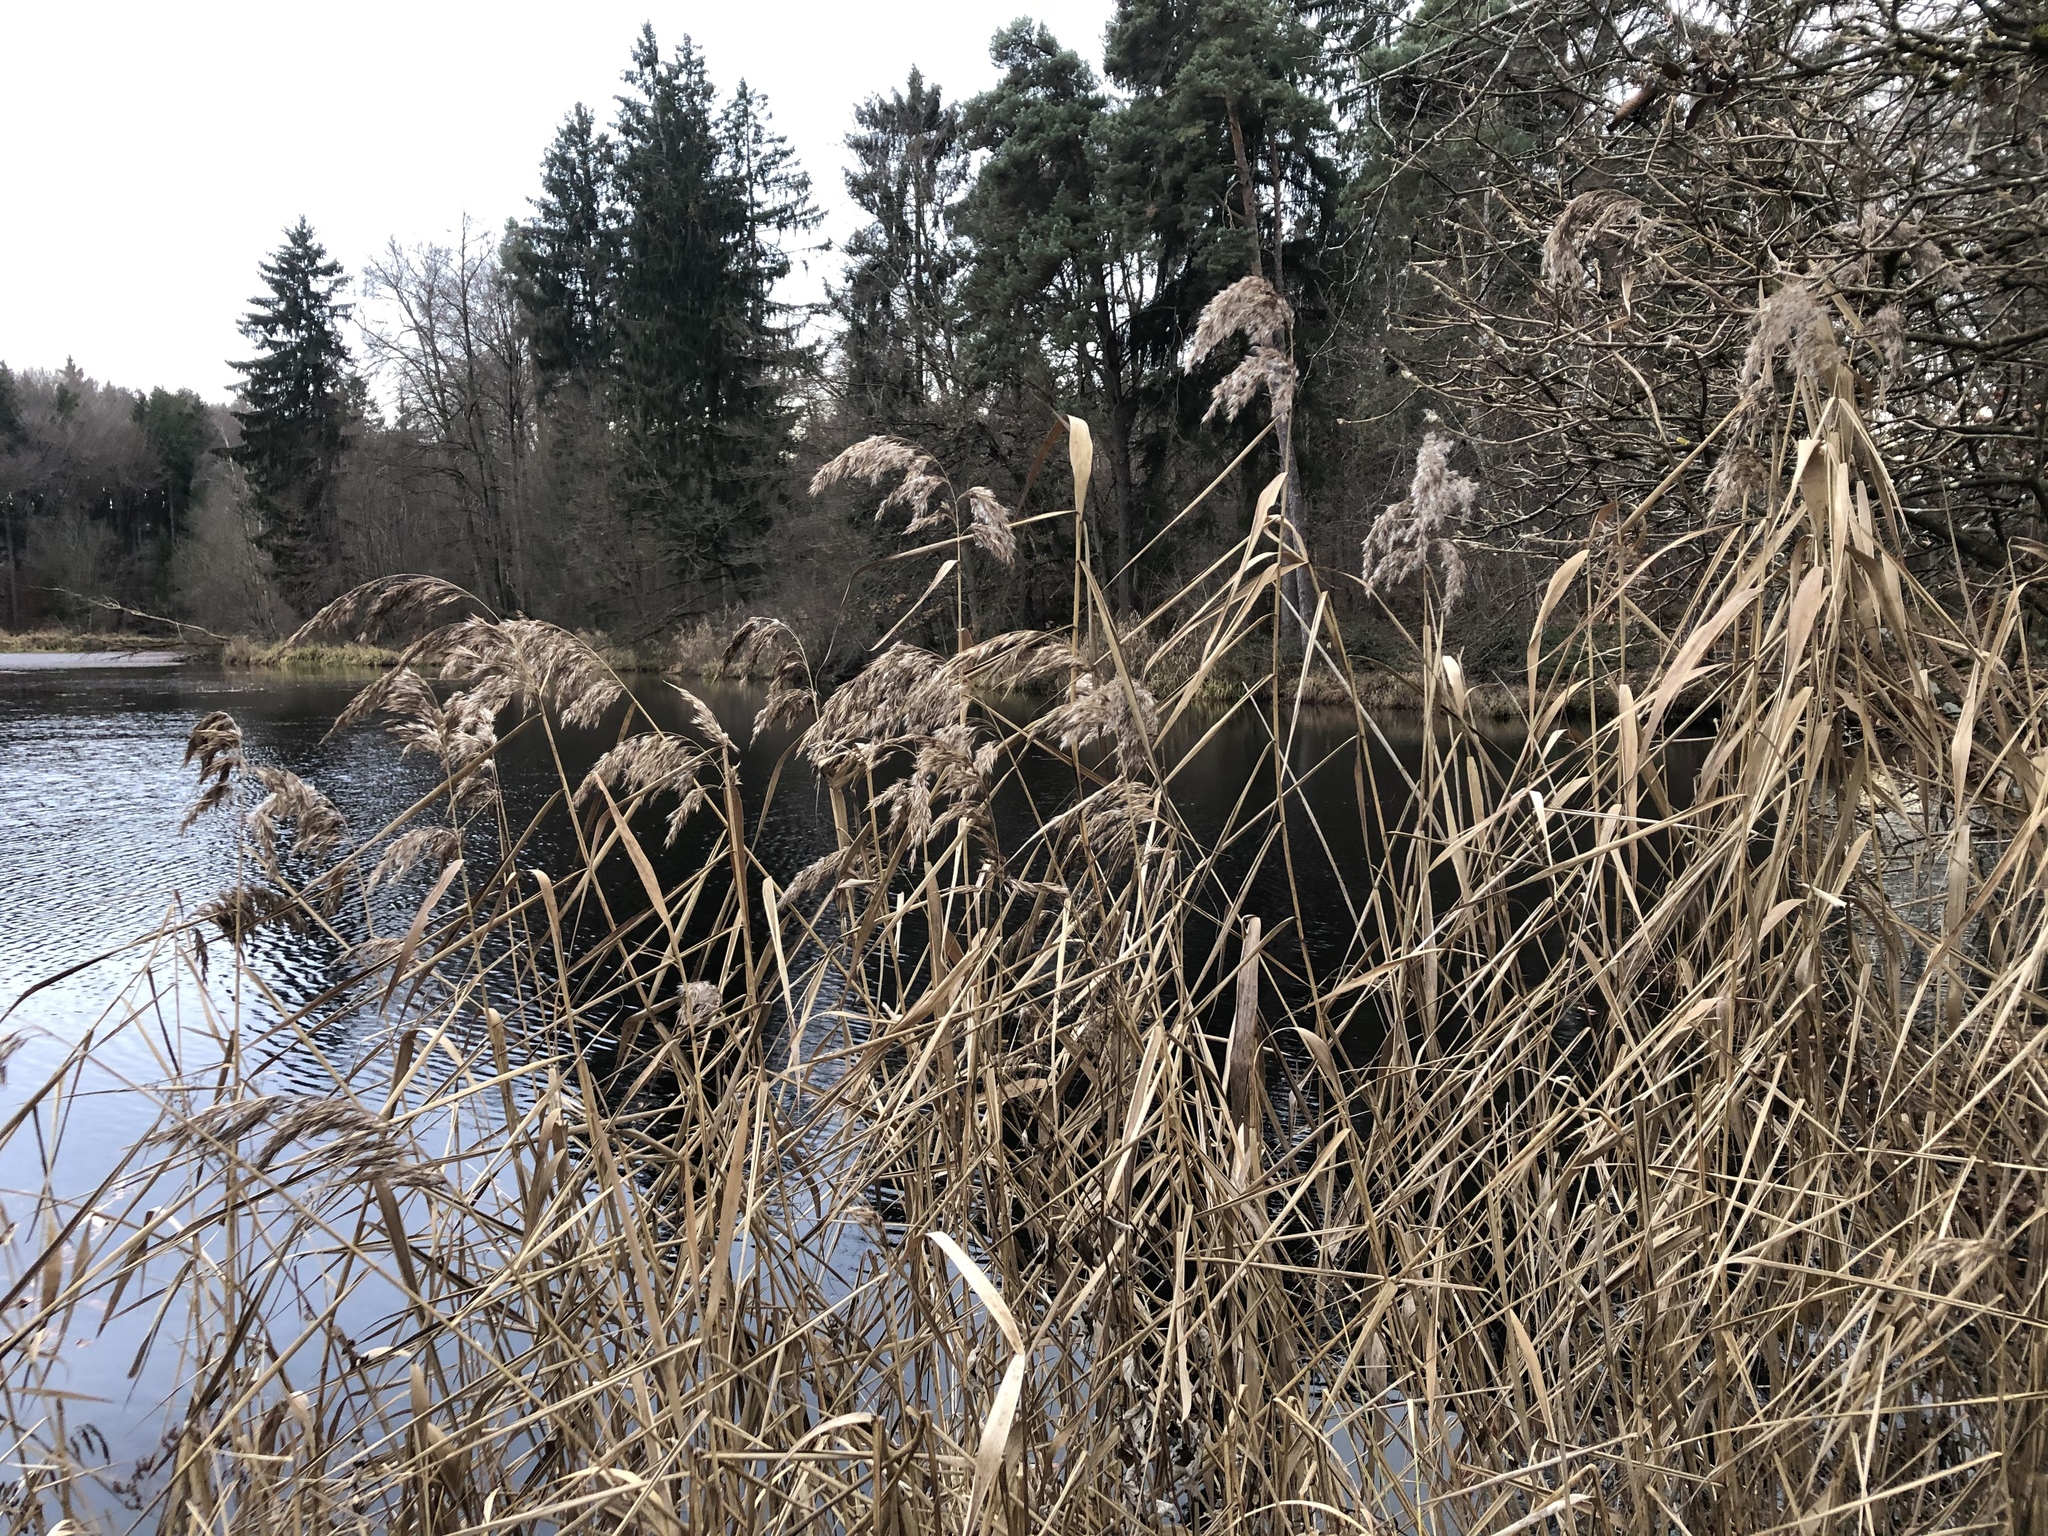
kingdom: Plantae
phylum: Tracheophyta
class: Liliopsida
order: Poales
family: Poaceae
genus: Phragmites
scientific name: Phragmites australis
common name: Common reed
